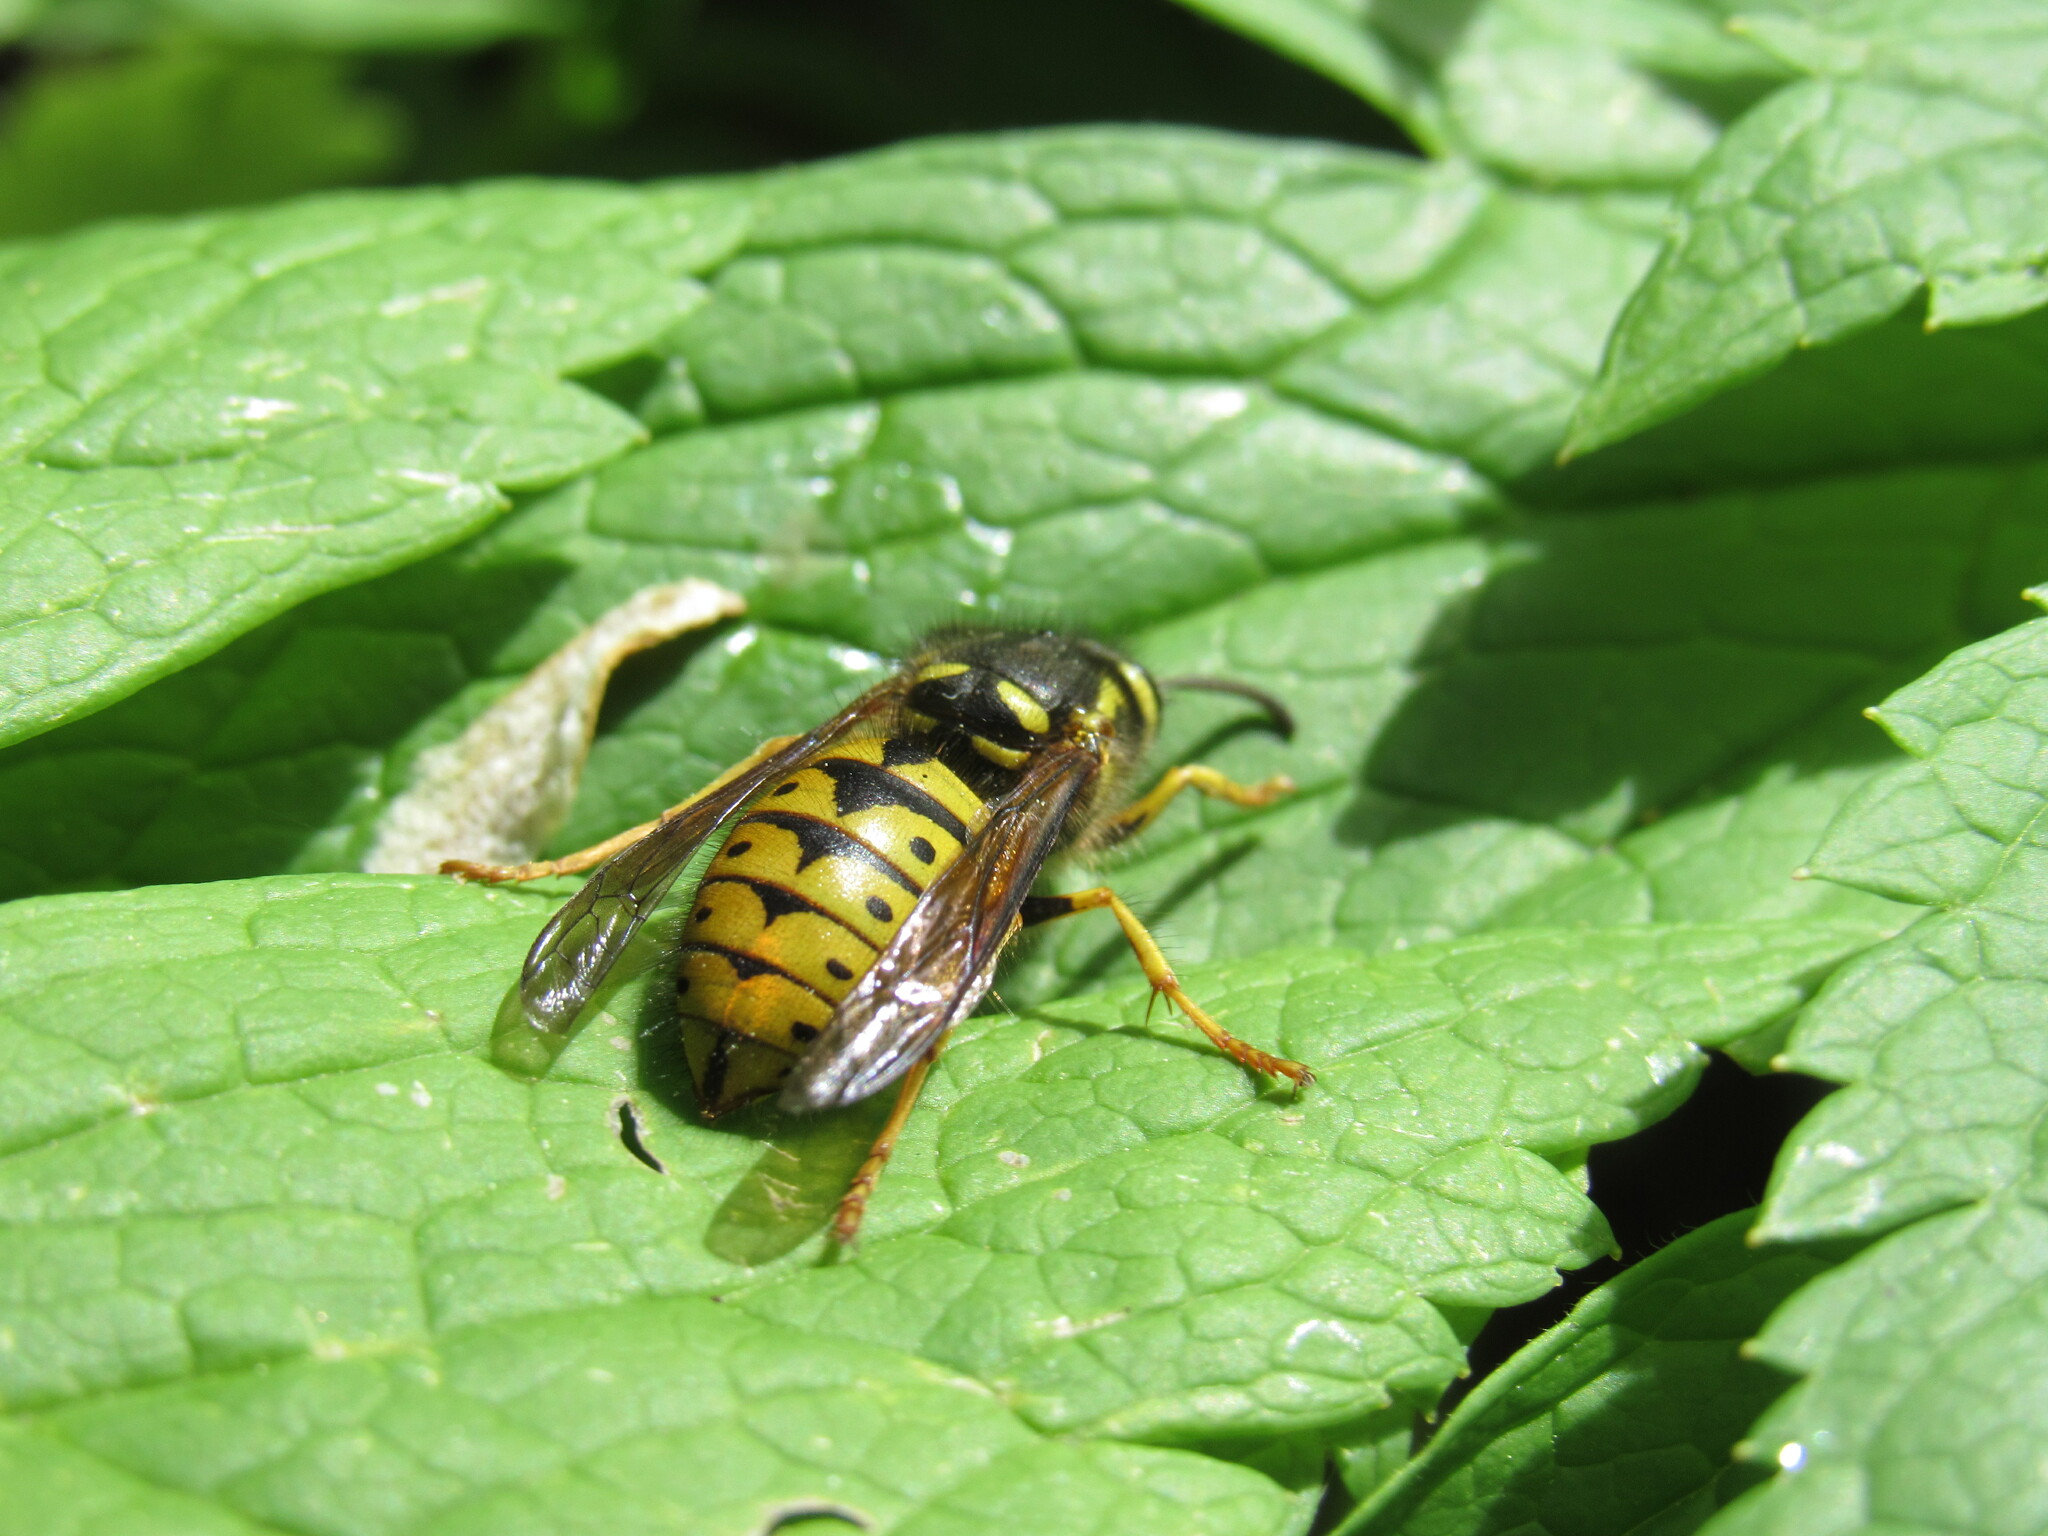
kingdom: Animalia
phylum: Arthropoda
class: Insecta
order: Hymenoptera
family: Vespidae
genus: Dolichovespula
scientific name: Dolichovespula arenaria
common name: Aerial yellowjacket
